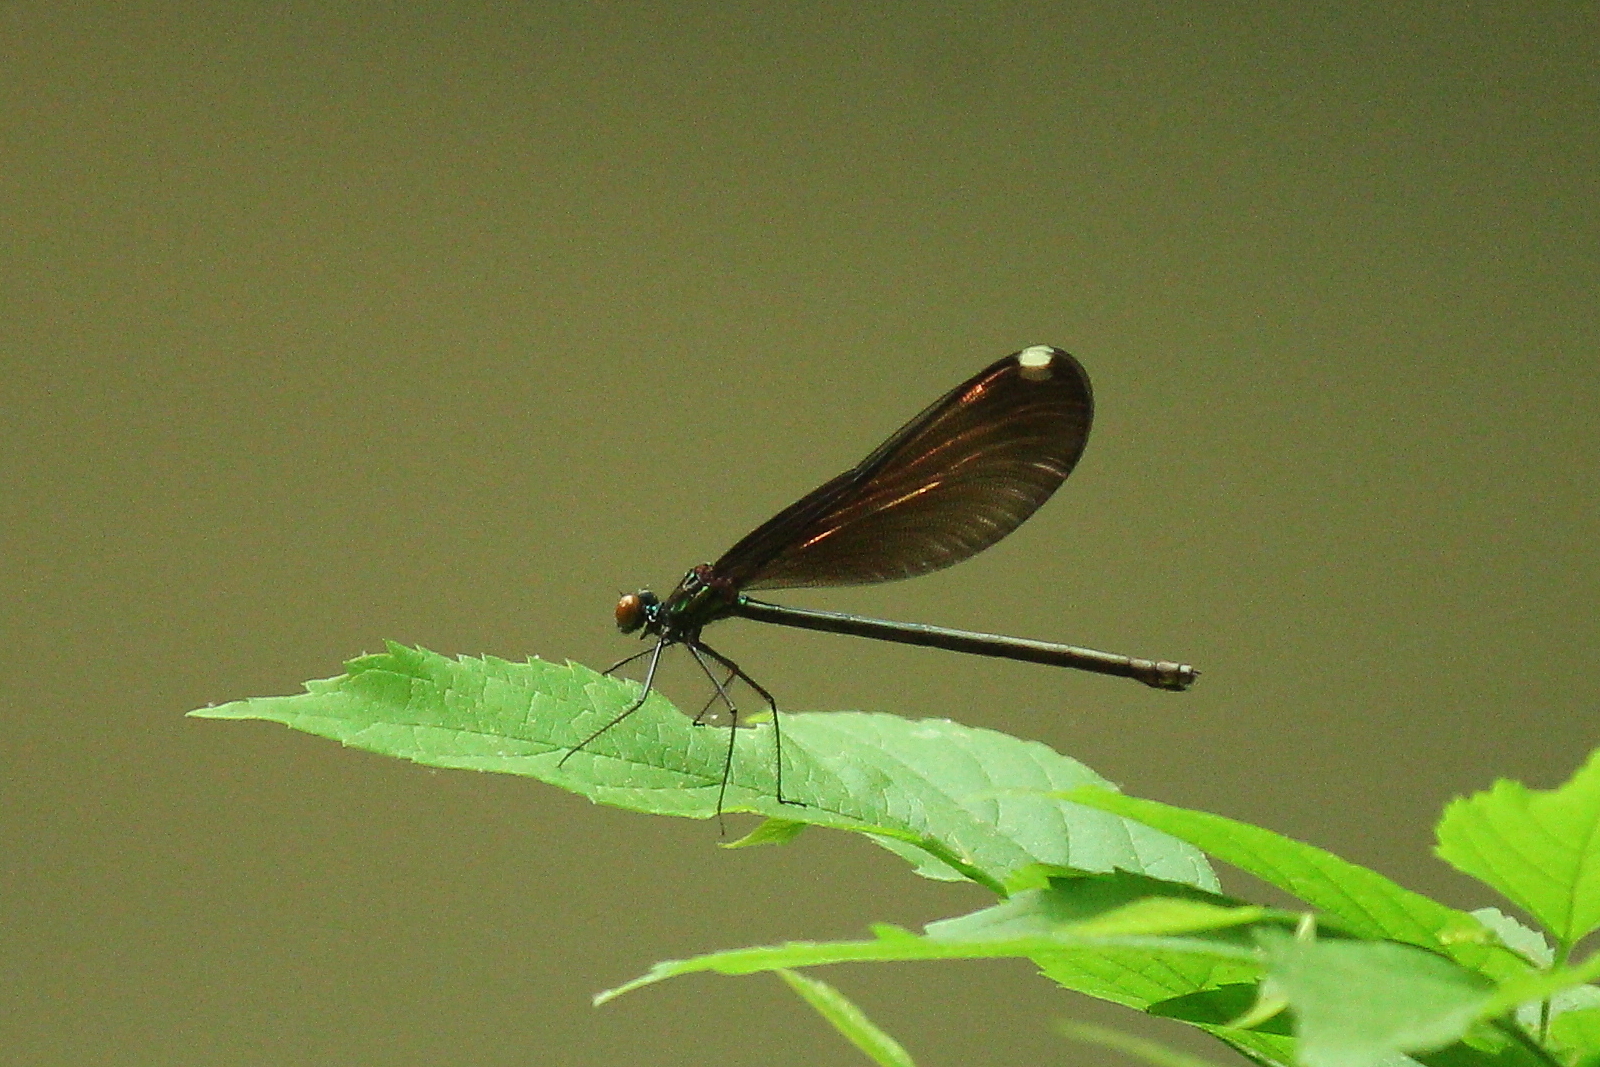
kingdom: Animalia
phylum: Arthropoda
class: Insecta
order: Odonata
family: Calopterygidae
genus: Calopteryx
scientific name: Calopteryx maculata
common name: Ebony jewelwing
